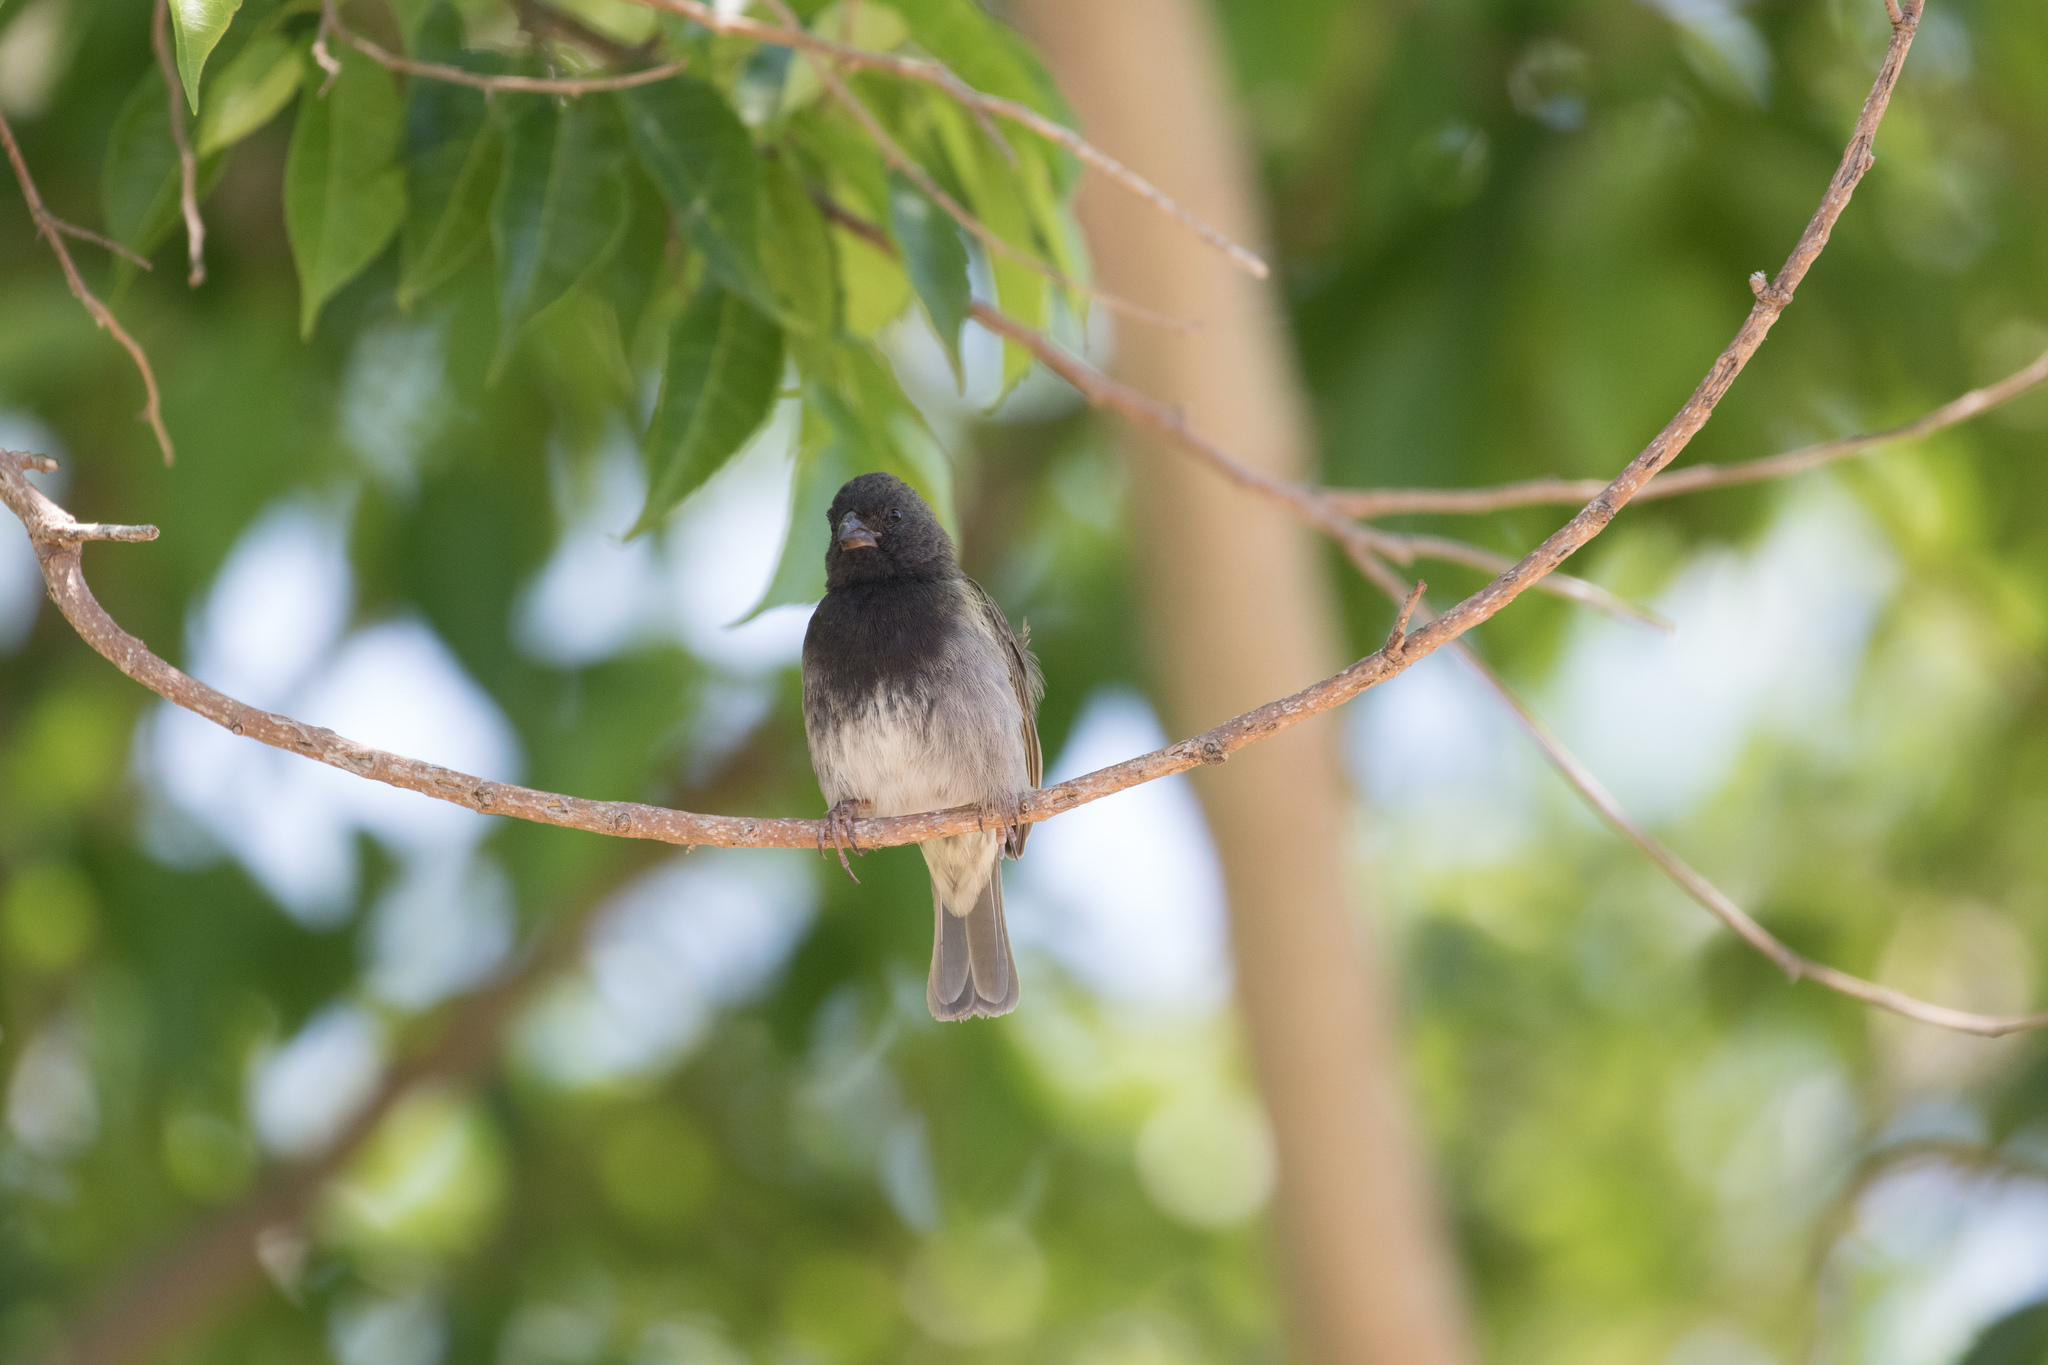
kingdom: Animalia
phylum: Chordata
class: Aves
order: Passeriformes
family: Thraupidae
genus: Melanospiza
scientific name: Melanospiza bicolor
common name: Black-faced grassquit
